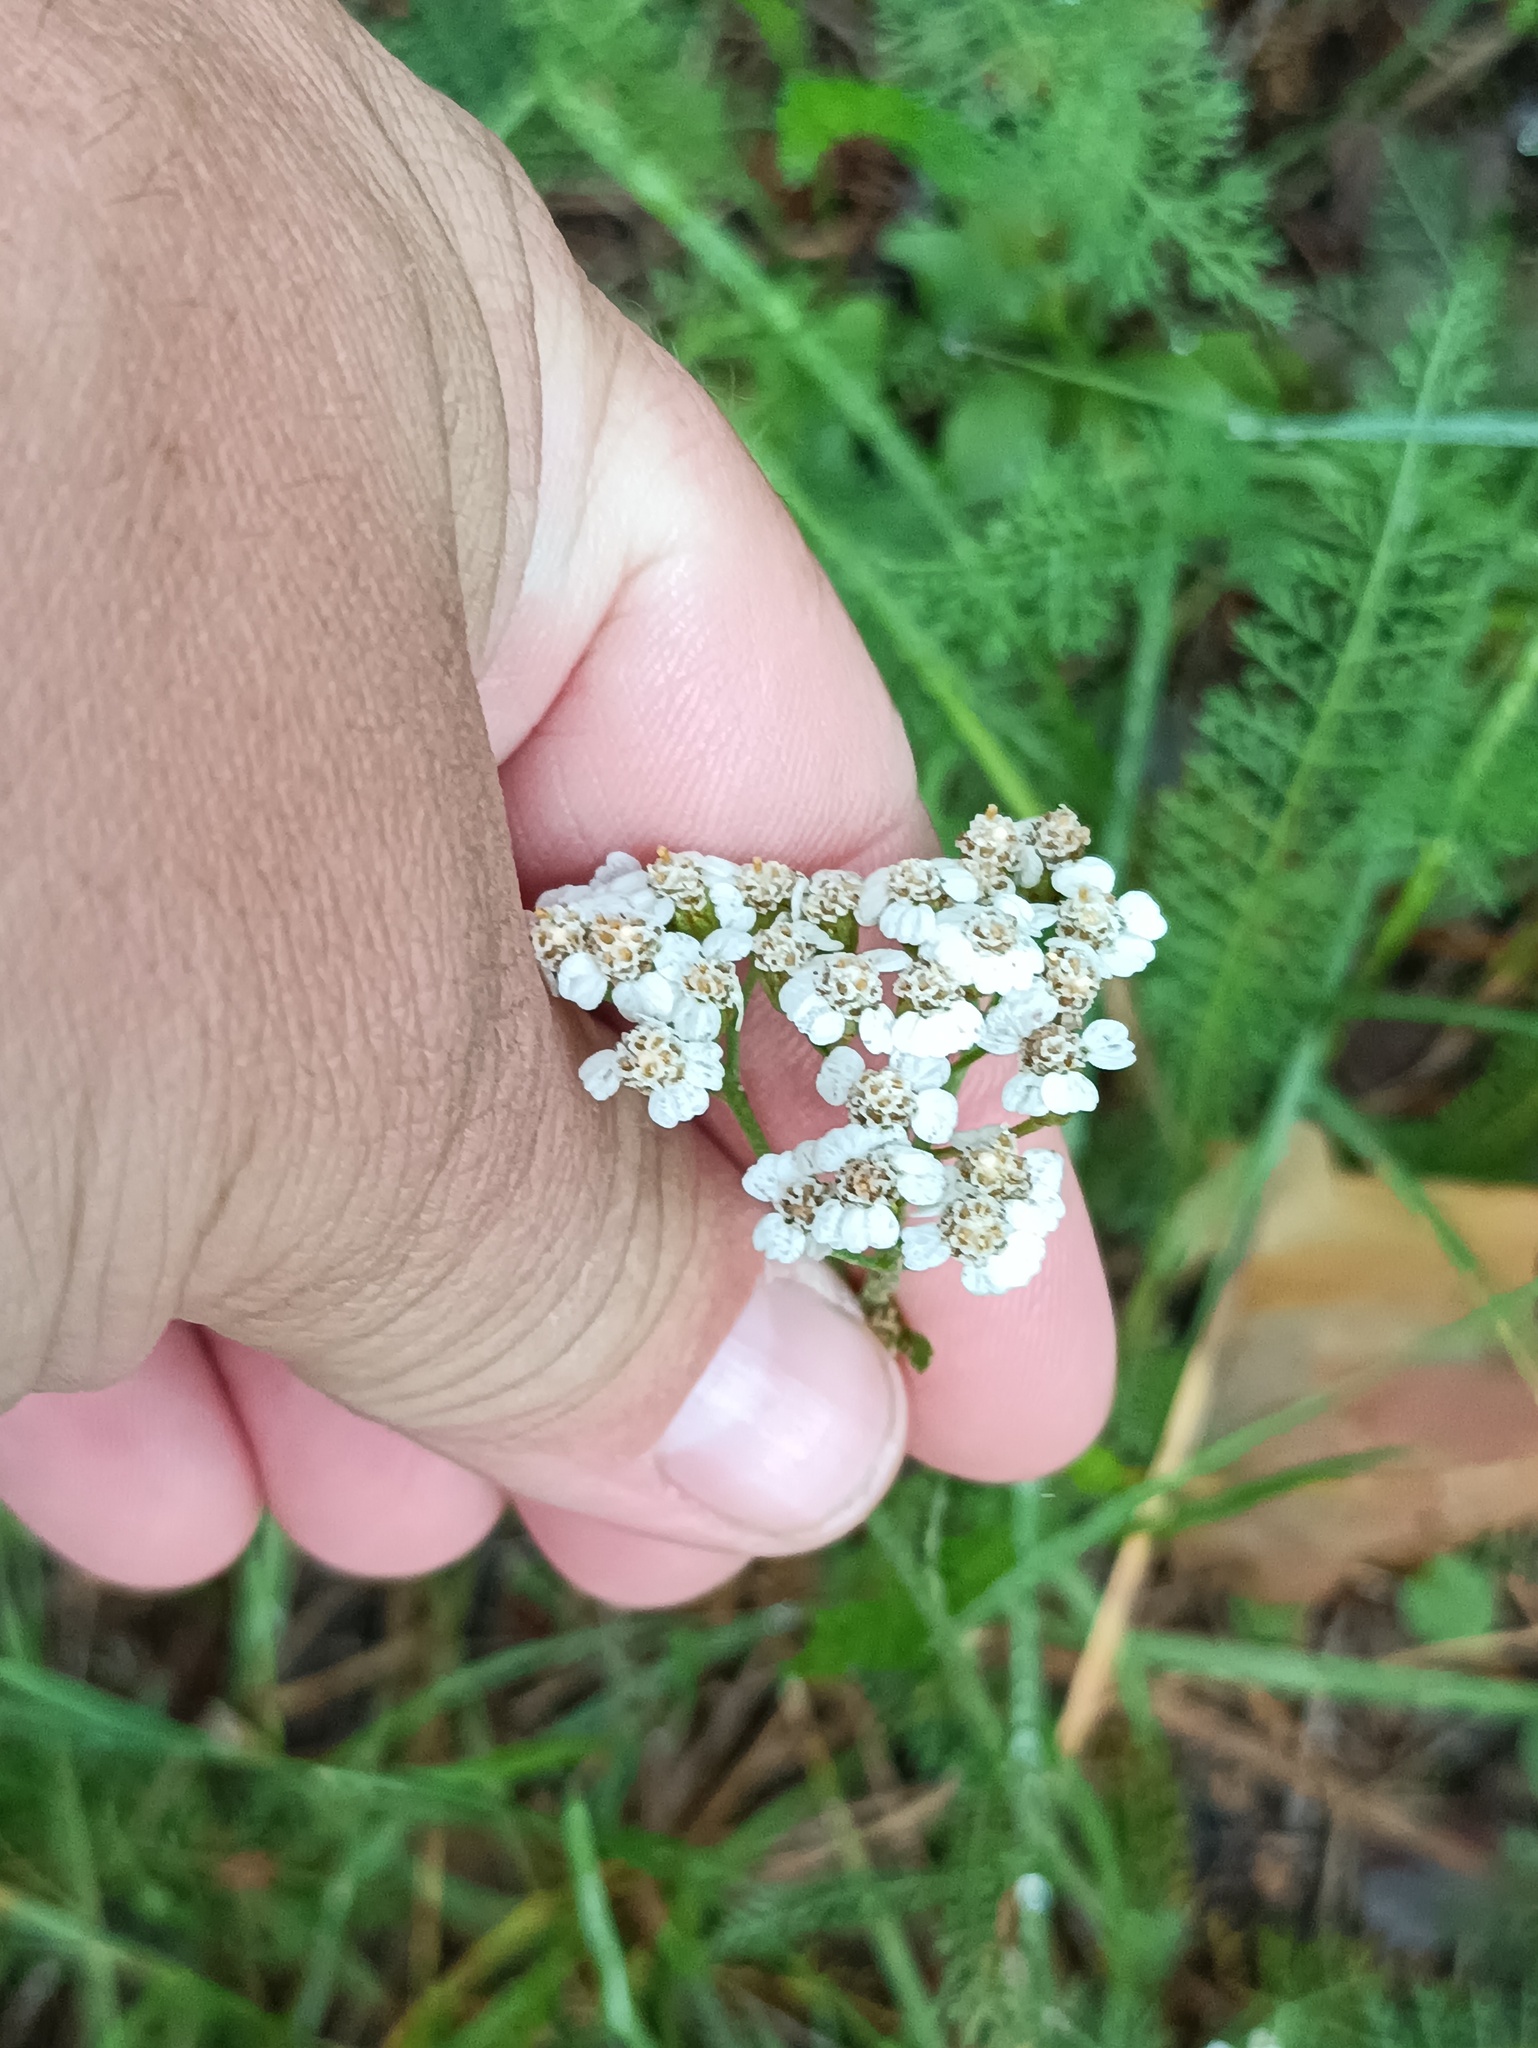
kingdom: Plantae
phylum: Tracheophyta
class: Magnoliopsida
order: Asterales
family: Asteraceae
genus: Achillea
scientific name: Achillea millefolium
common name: Yarrow
